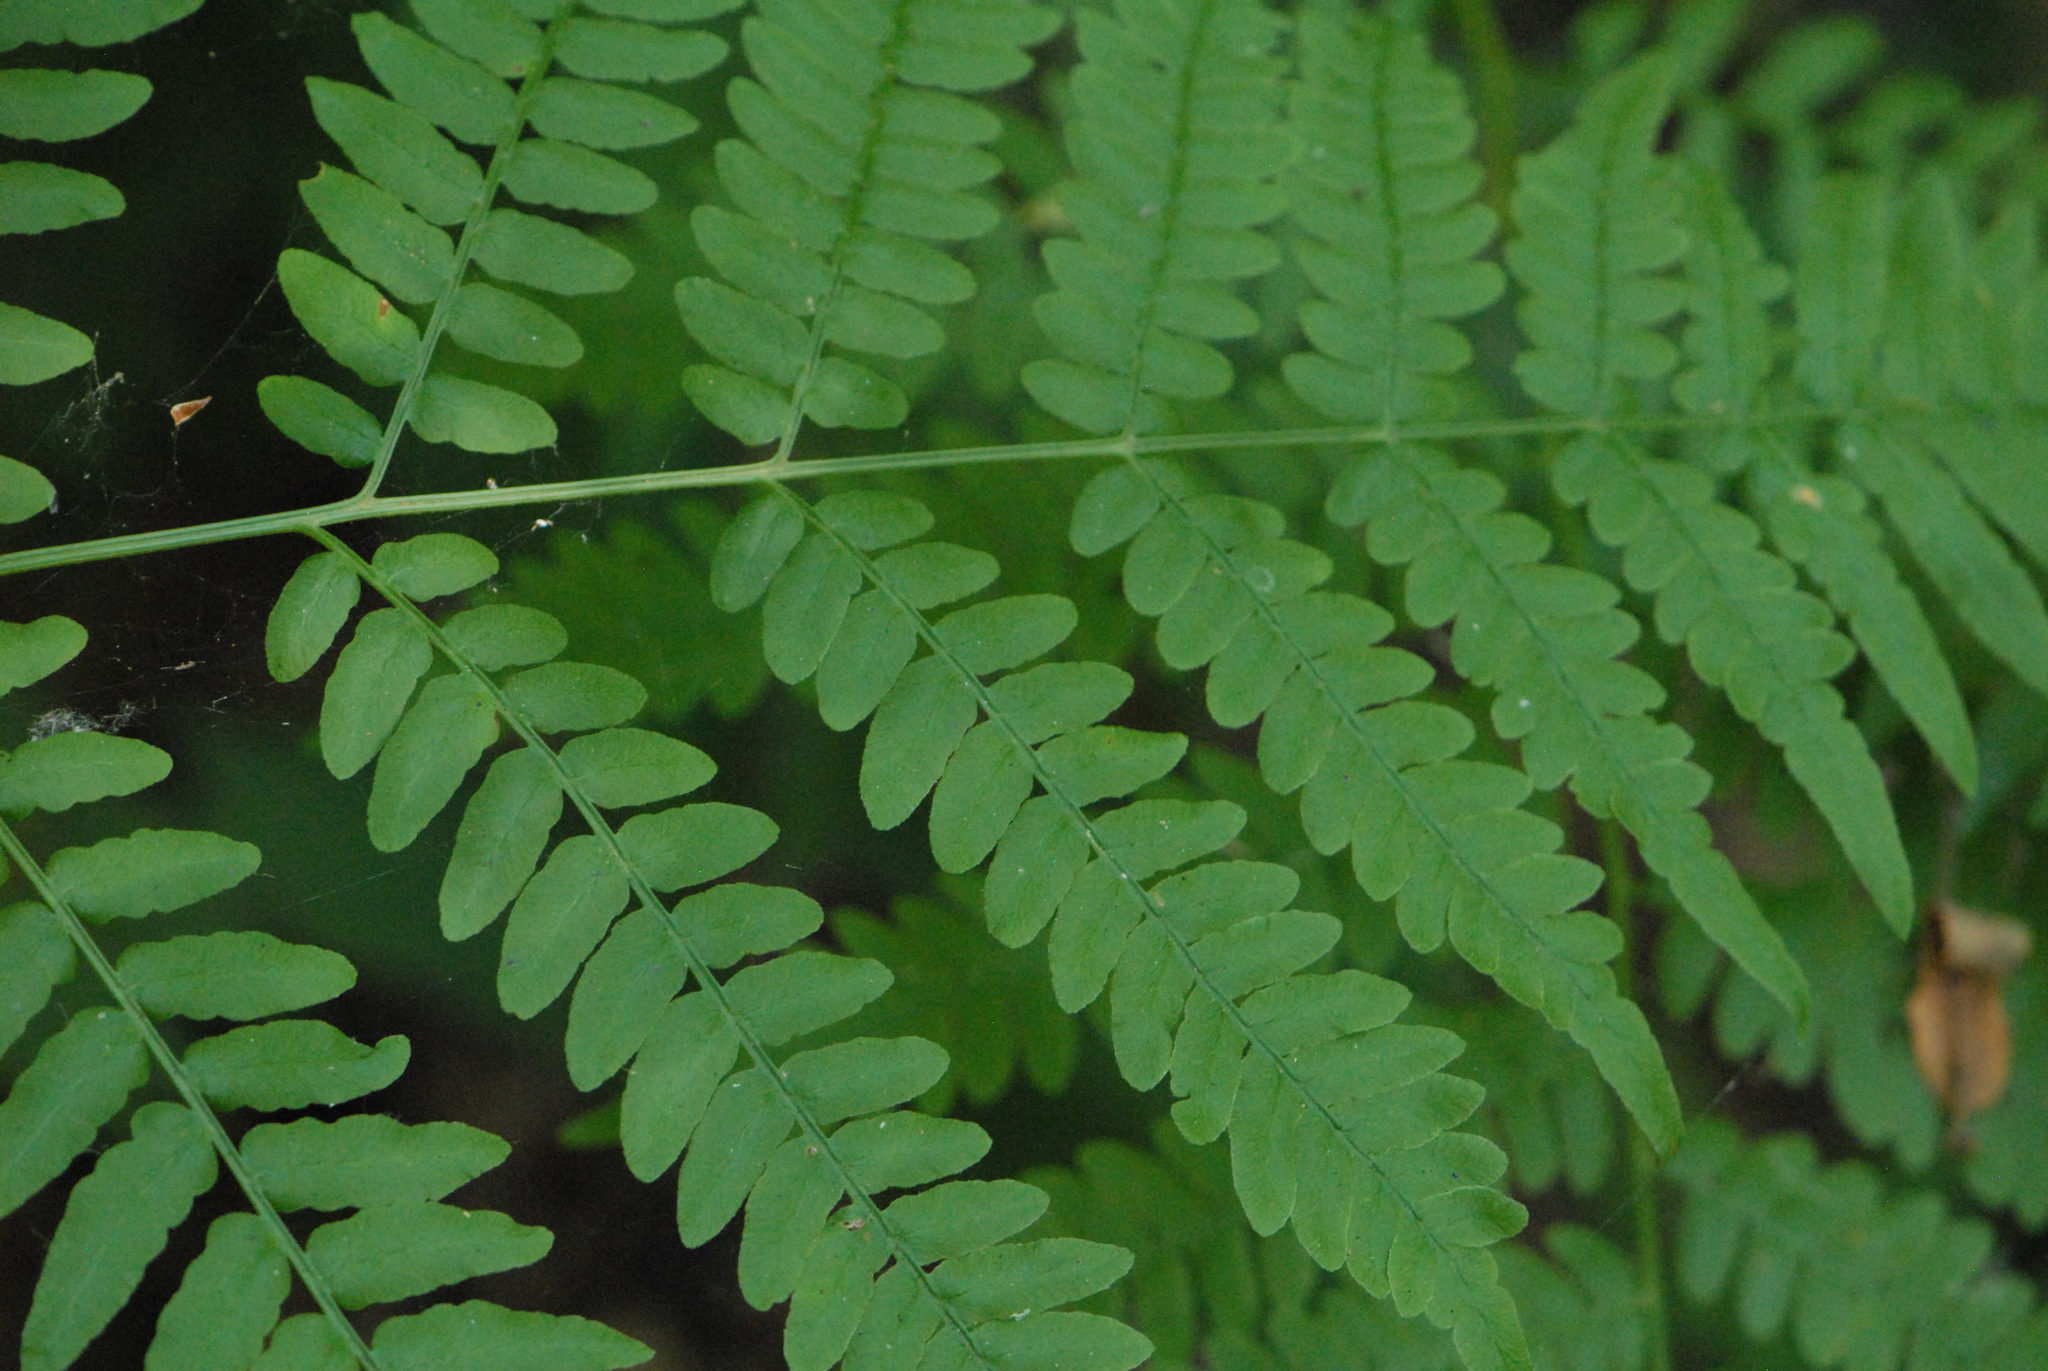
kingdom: Plantae
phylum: Tracheophyta
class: Polypodiopsida
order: Polypodiales
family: Dennstaedtiaceae
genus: Pteridium
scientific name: Pteridium aquilinum
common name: Bracken
